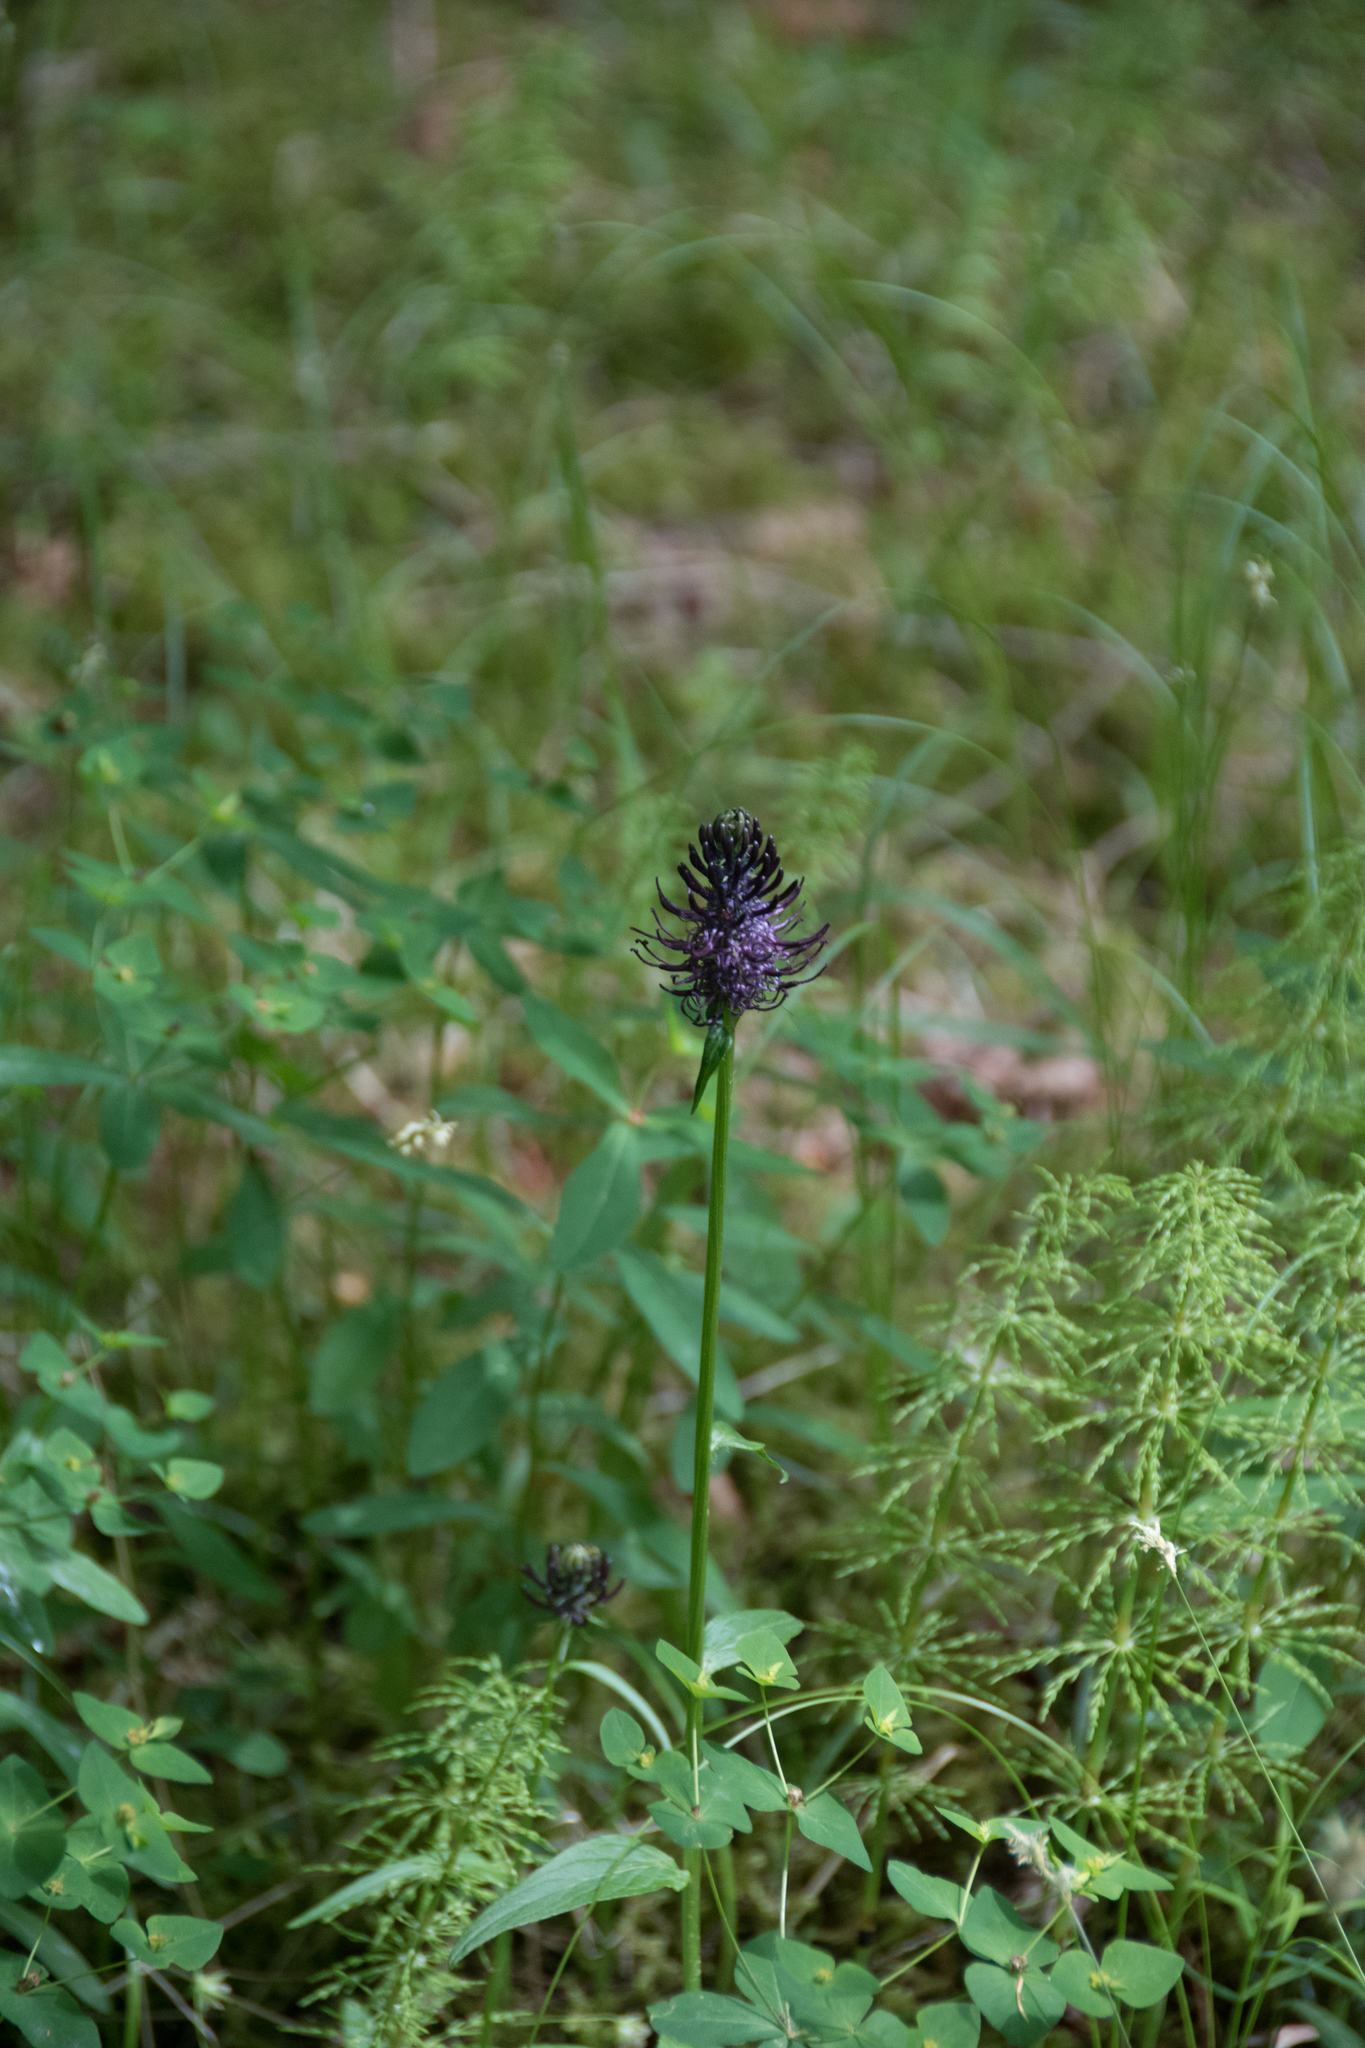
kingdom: Plantae
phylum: Tracheophyta
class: Magnoliopsida
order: Asterales
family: Campanulaceae
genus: Phyteuma
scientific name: Phyteuma nigrum
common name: Black rampion
